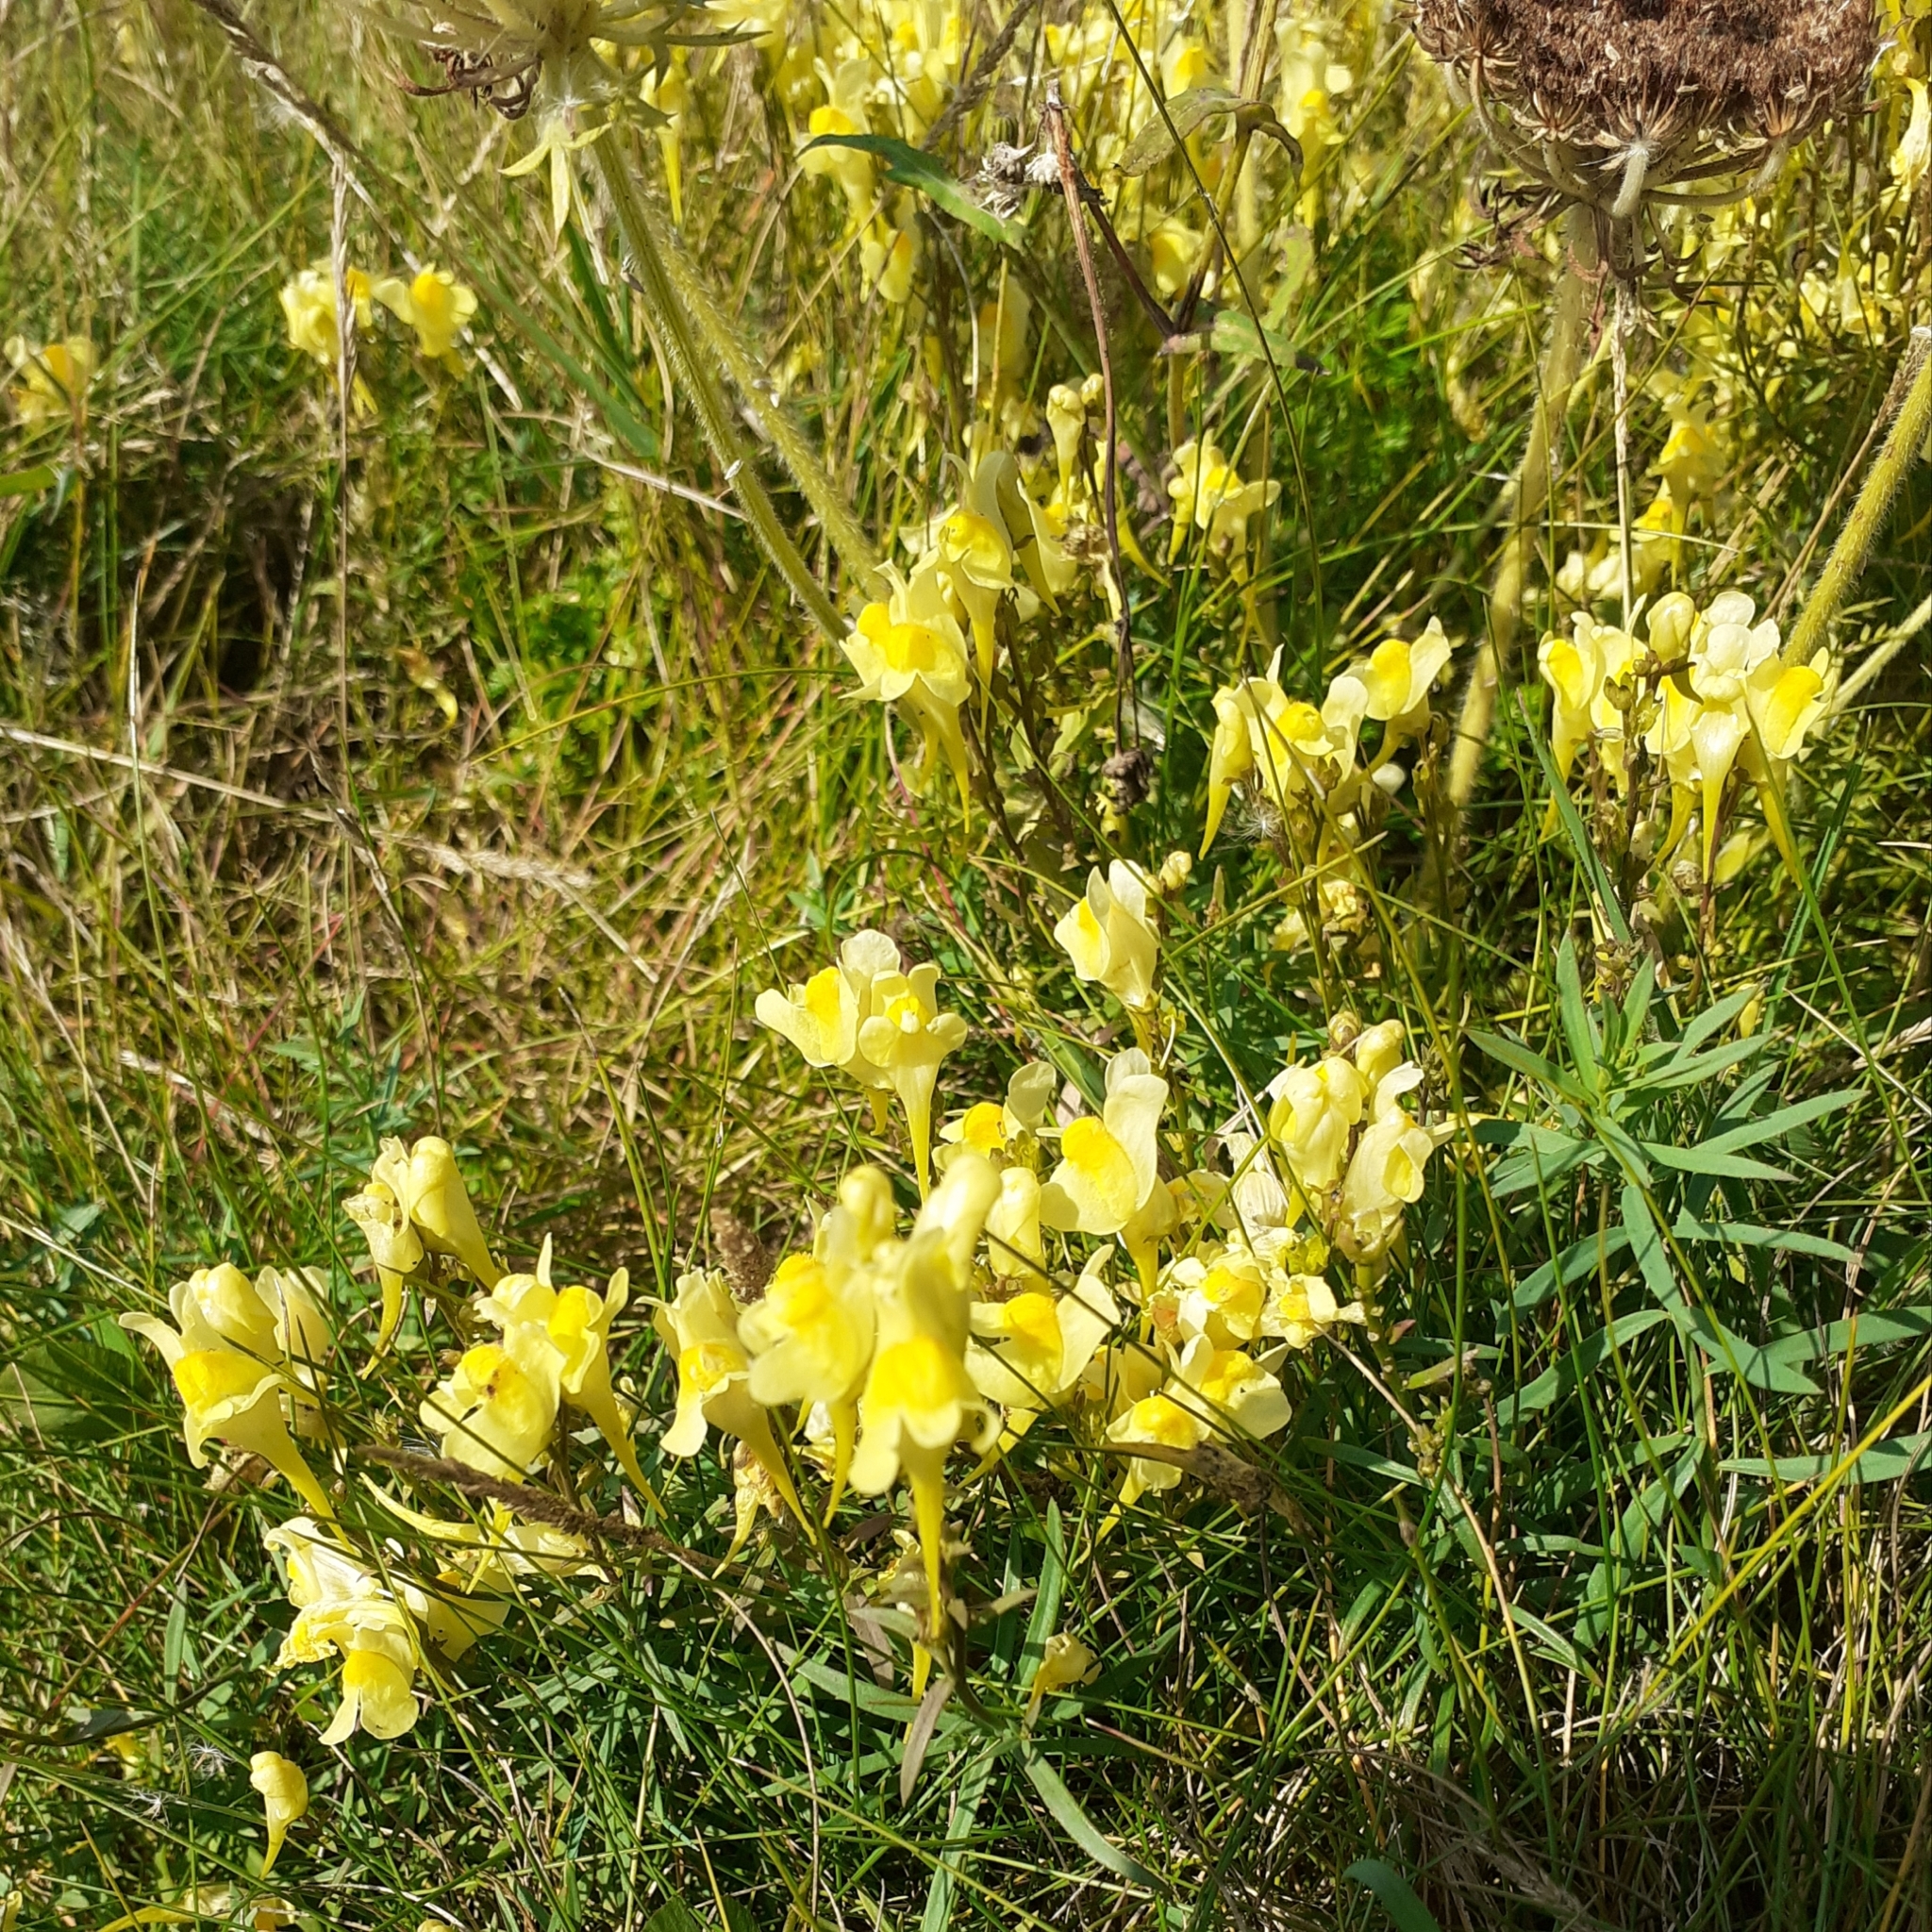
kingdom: Plantae
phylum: Tracheophyta
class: Magnoliopsida
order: Lamiales
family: Plantaginaceae
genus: Linaria
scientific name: Linaria vulgaris
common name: Butter and eggs
